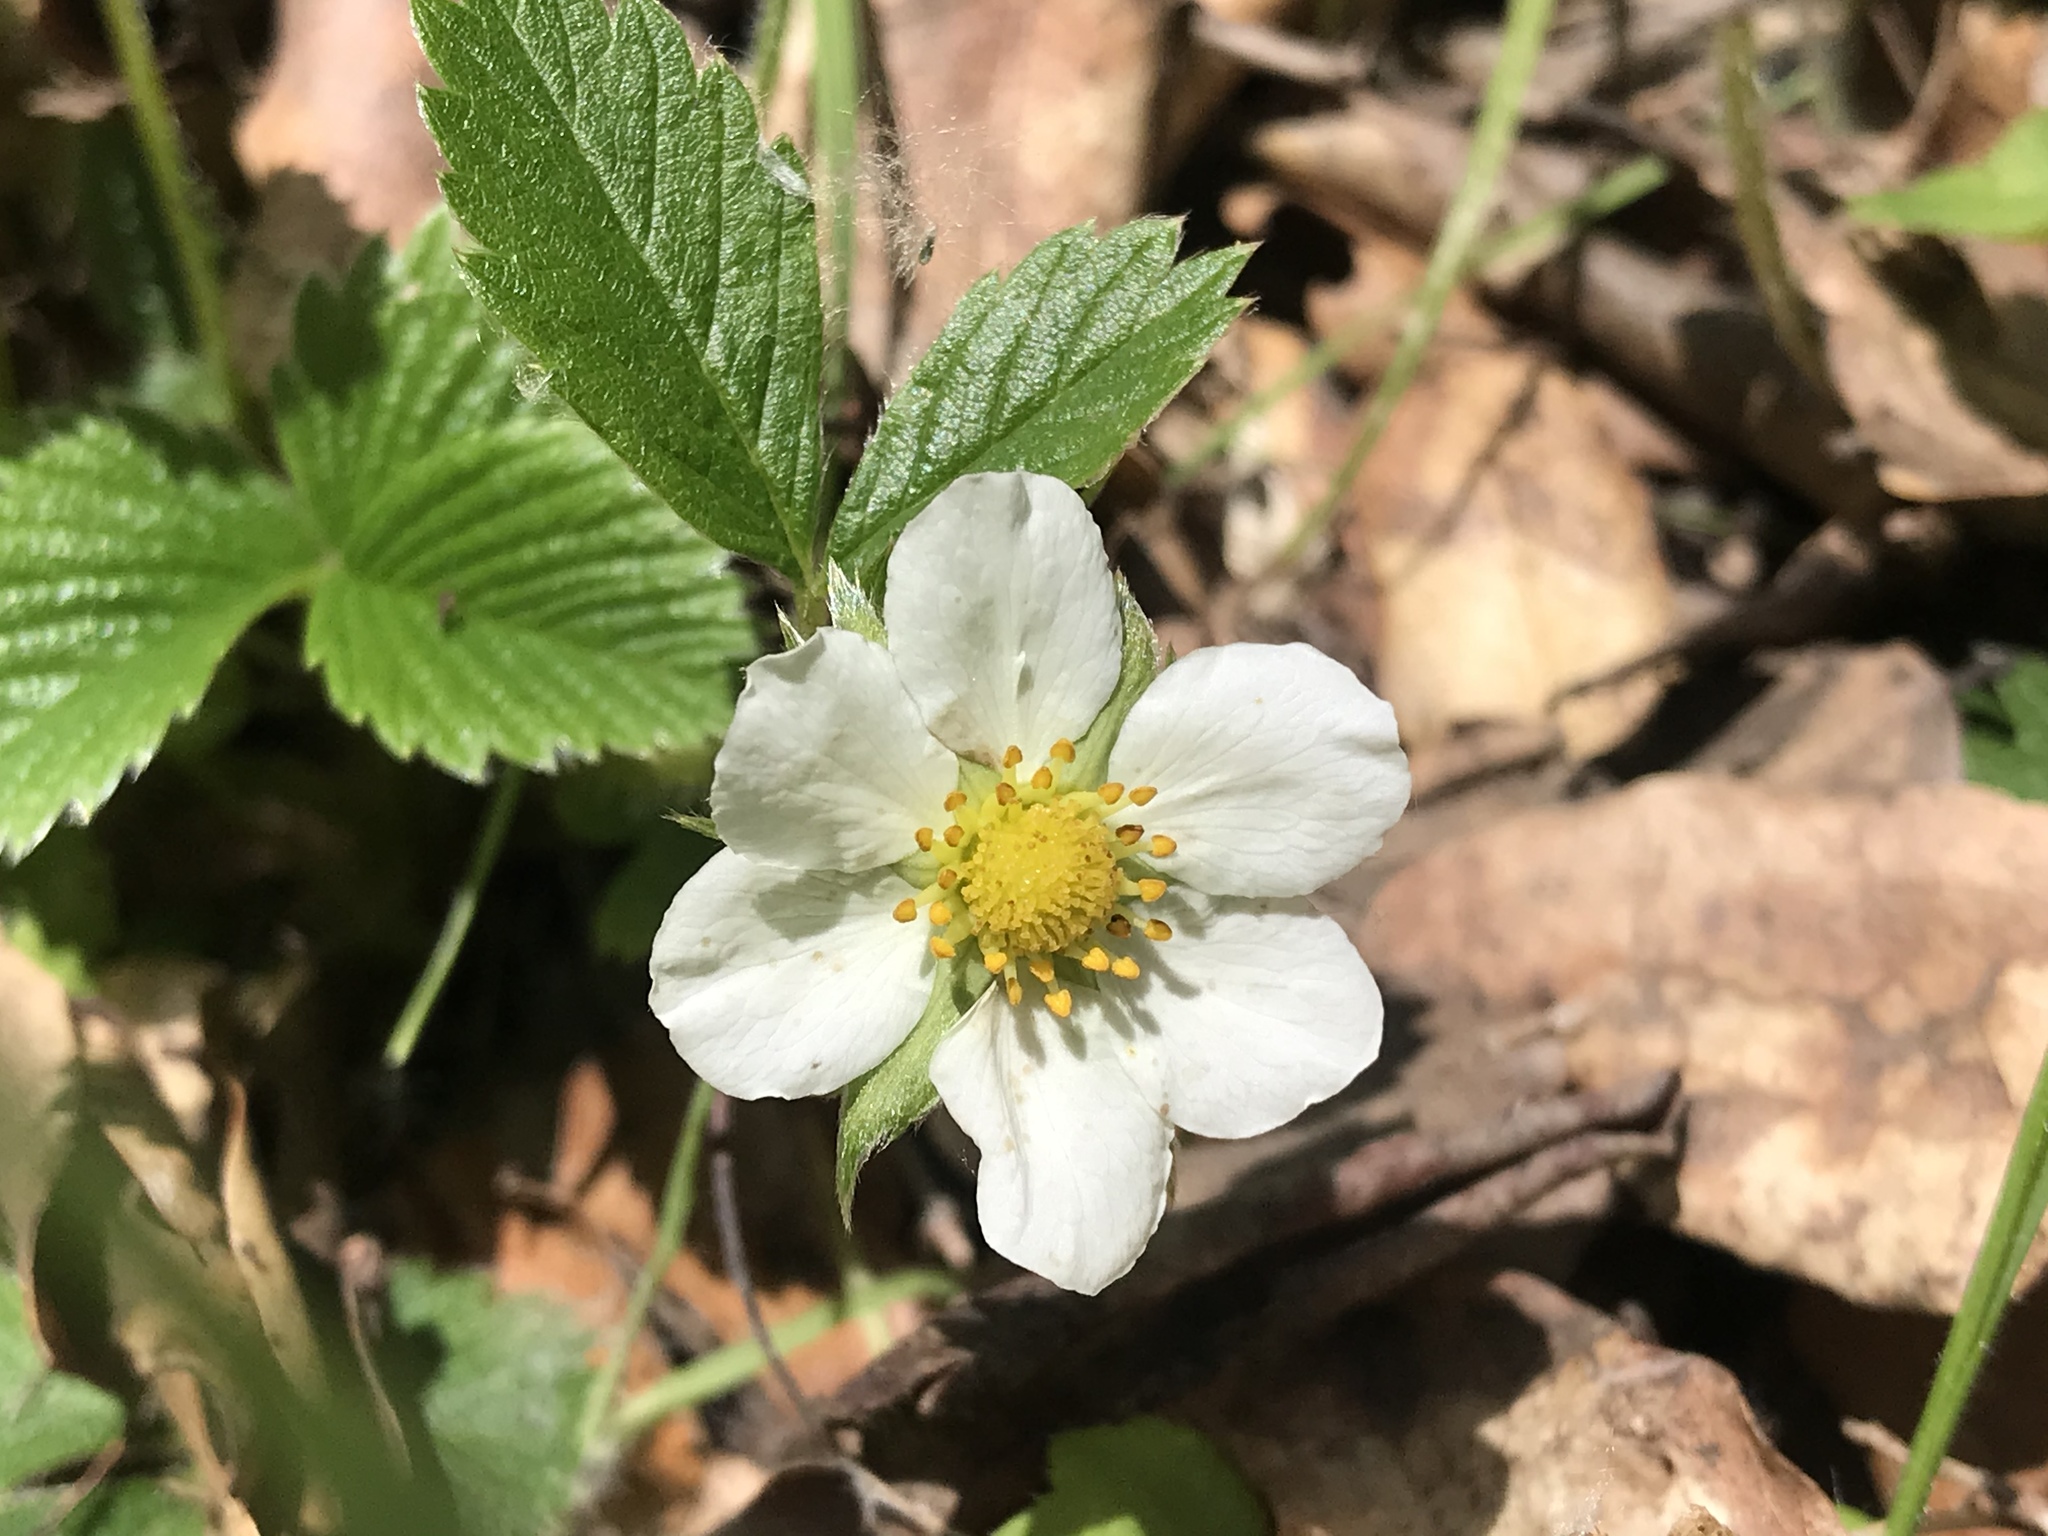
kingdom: Plantae
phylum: Tracheophyta
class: Magnoliopsida
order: Rosales
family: Rosaceae
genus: Fragaria
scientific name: Fragaria vesca
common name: Wild strawberry
